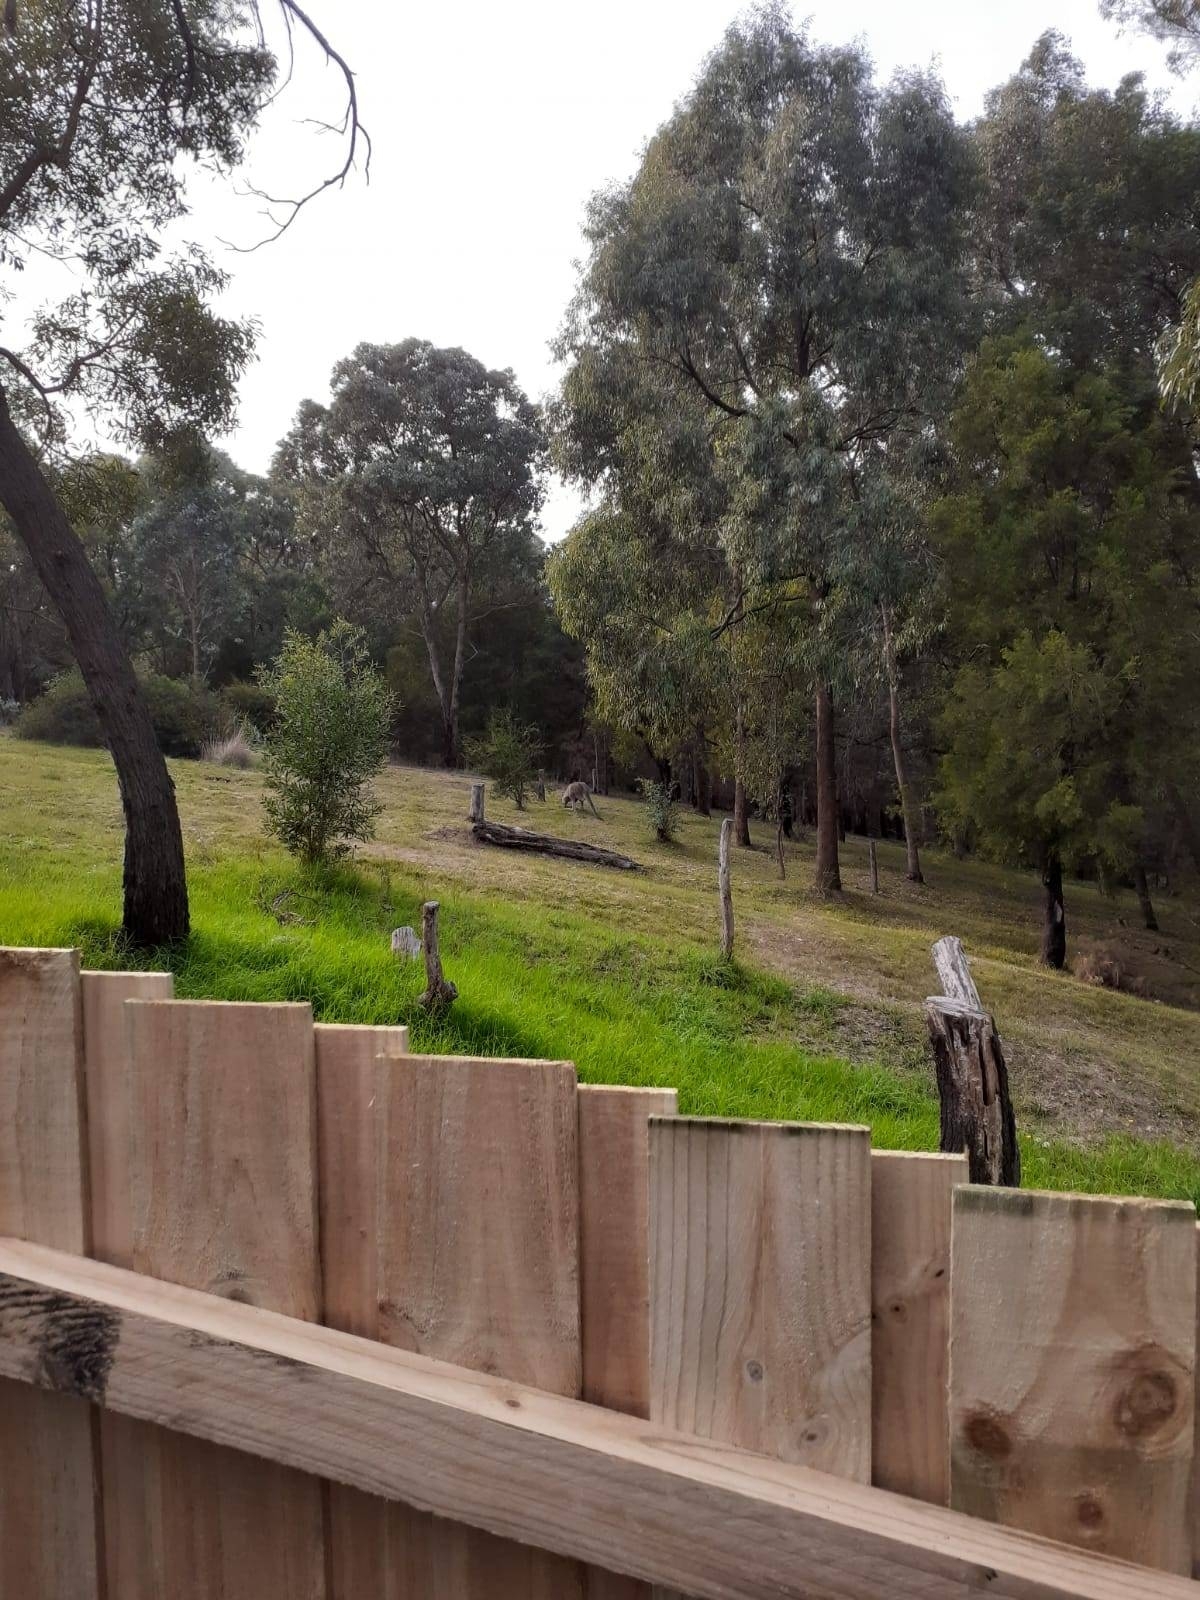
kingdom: Animalia
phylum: Chordata
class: Mammalia
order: Diprotodontia
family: Macropodidae
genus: Macropus
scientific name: Macropus giganteus
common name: Eastern grey kangaroo
